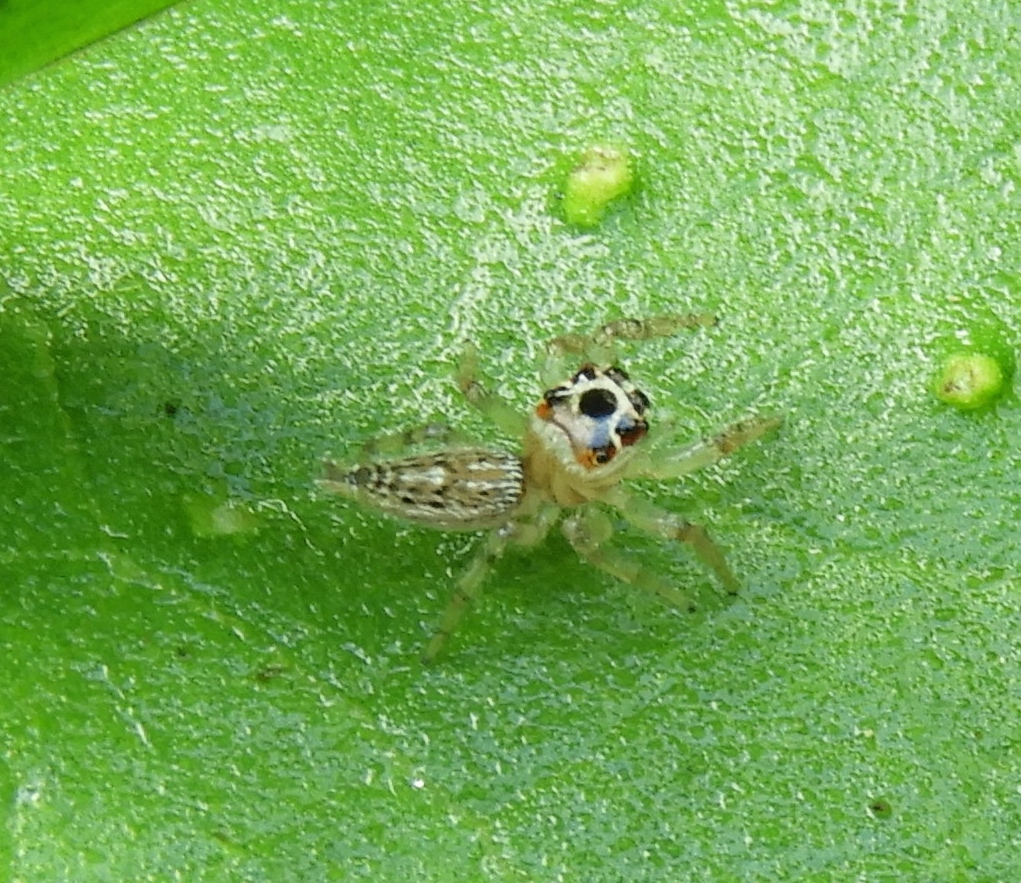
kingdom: Animalia
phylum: Arthropoda
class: Arachnida
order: Araneae
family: Salticidae
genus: Colonus
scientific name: Colonus
